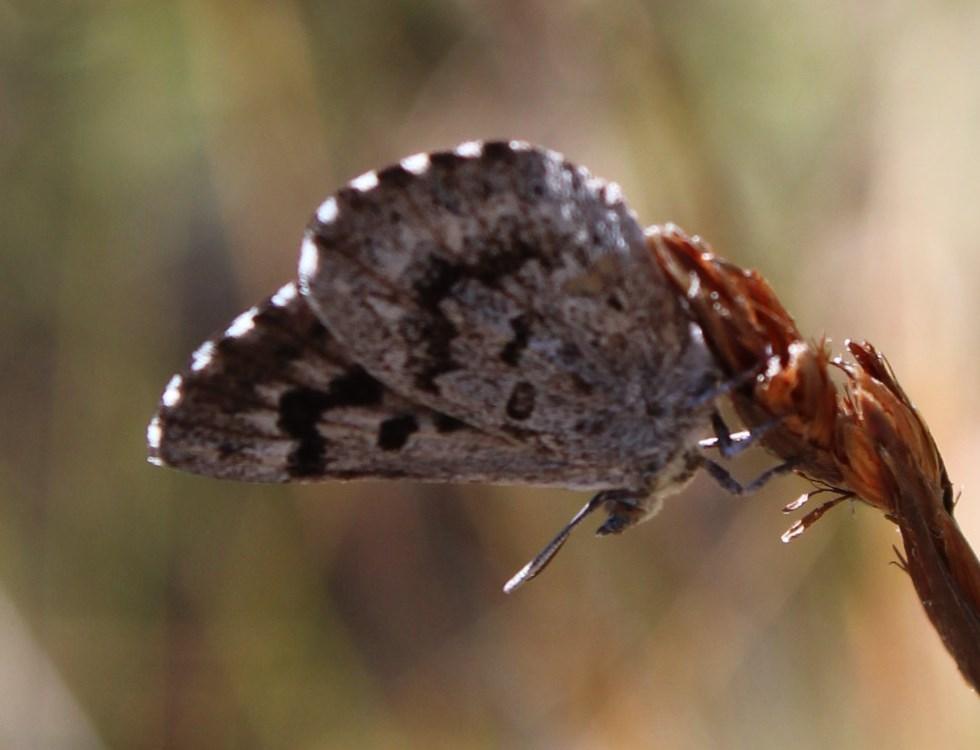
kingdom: Animalia
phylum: Arthropoda
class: Insecta
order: Lepidoptera
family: Lycaenidae
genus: Thestor
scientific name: Thestor holmesi
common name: Holmes' skolly
